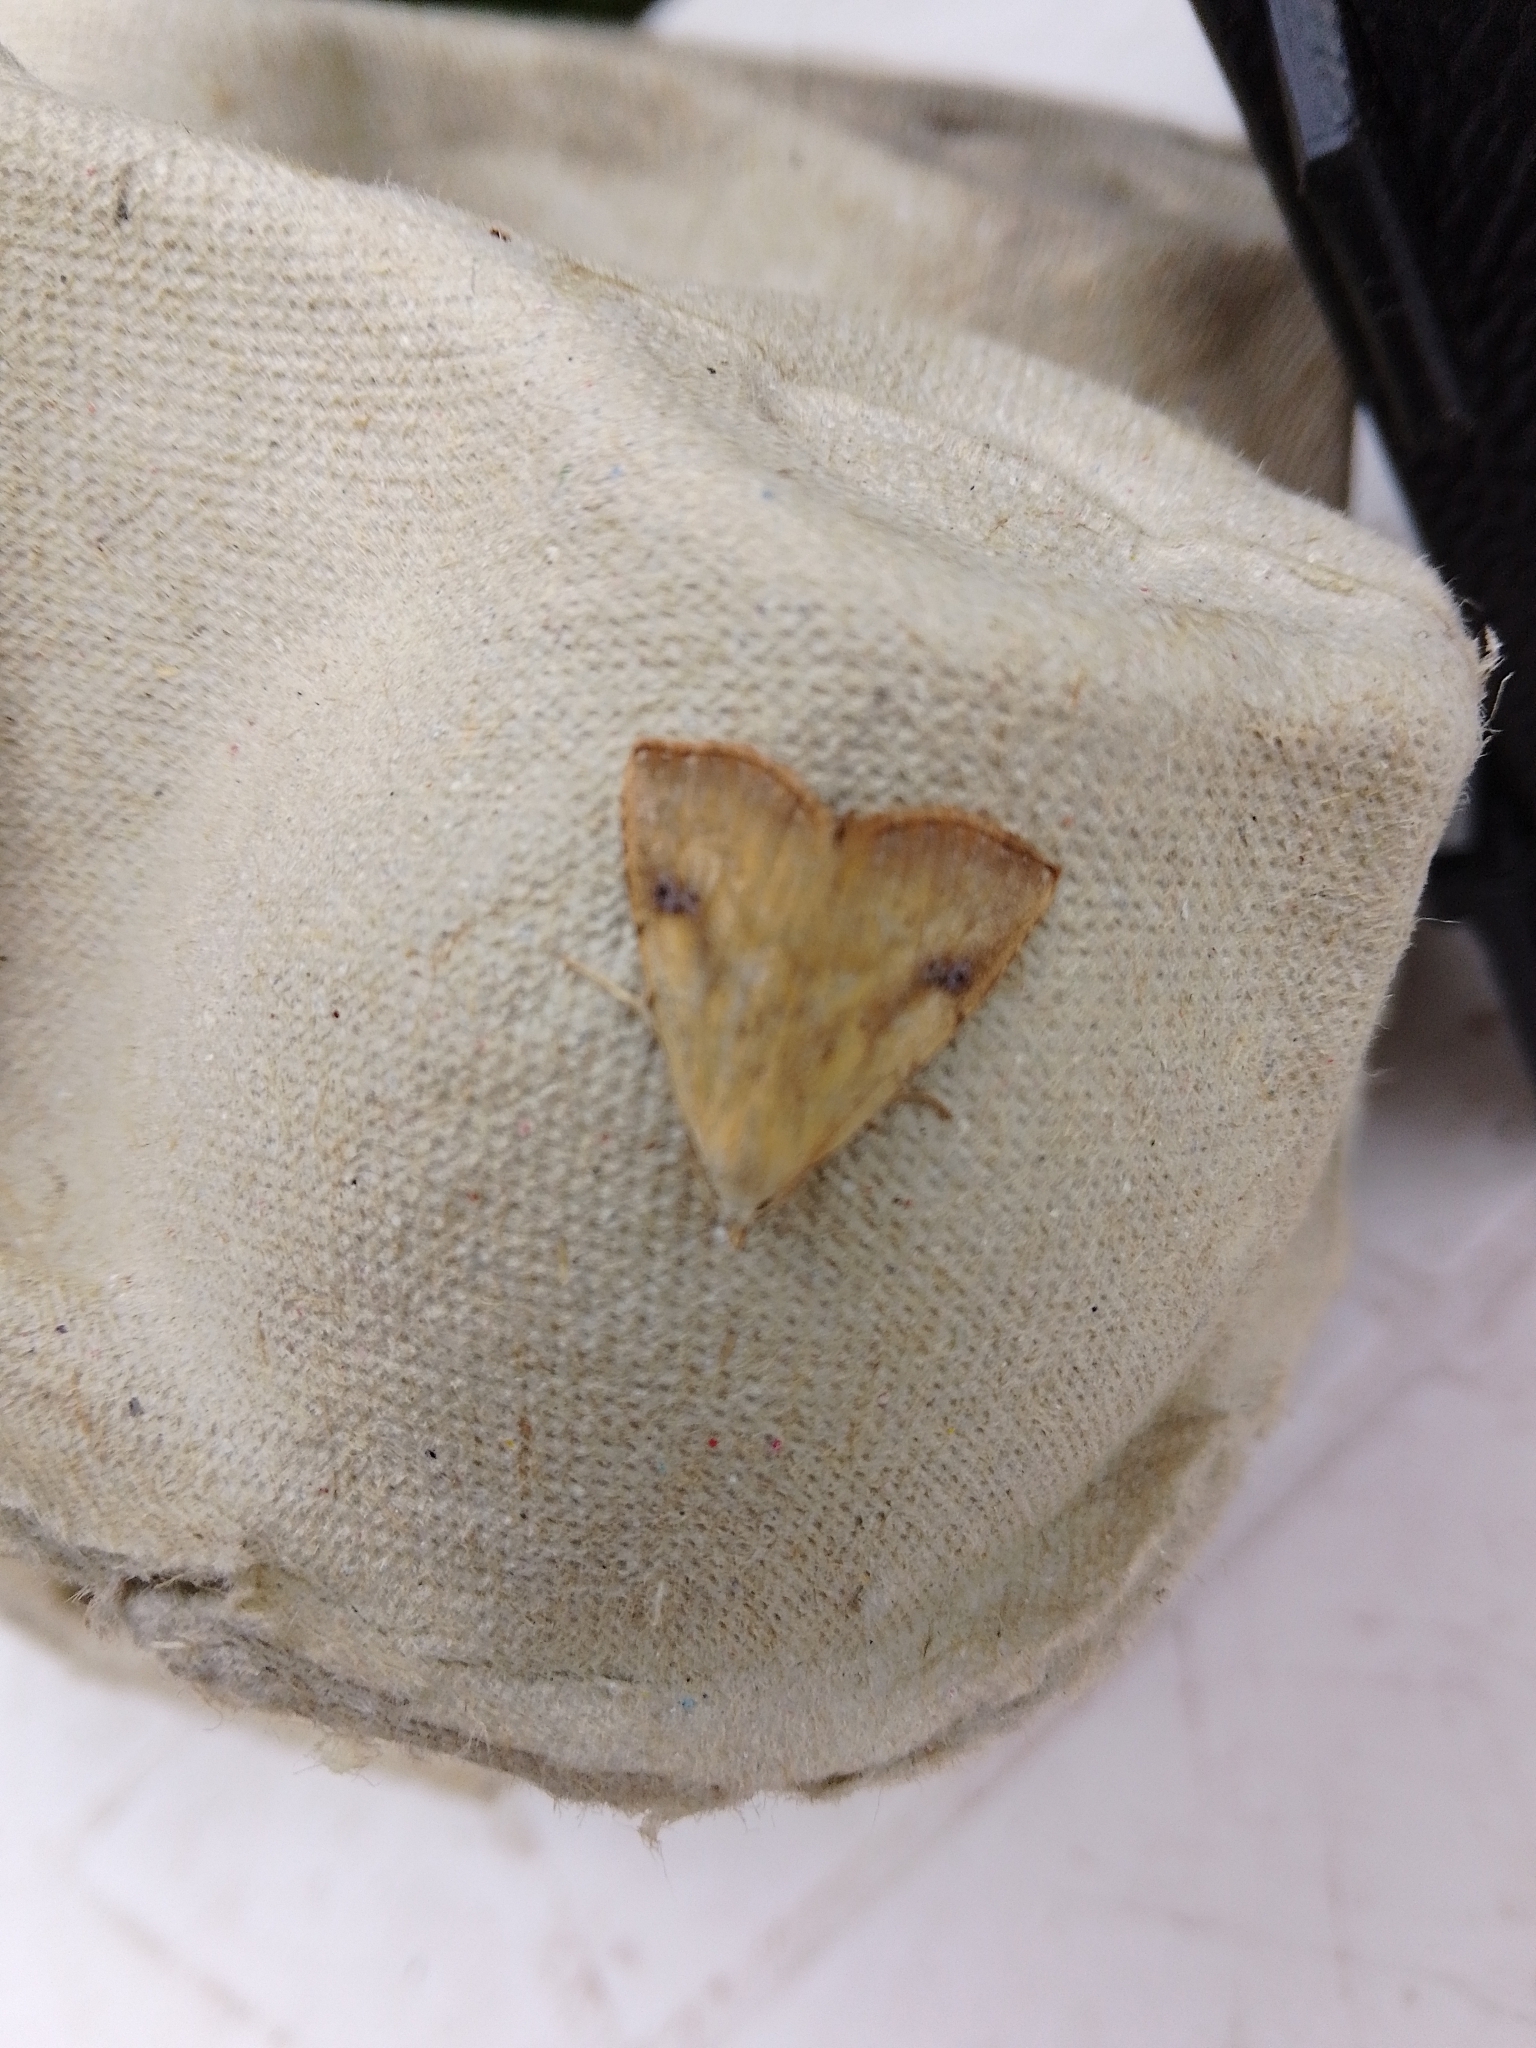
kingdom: Animalia
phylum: Arthropoda
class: Insecta
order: Lepidoptera
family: Erebidae
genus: Rivula
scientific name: Rivula sericealis
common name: Straw dot
